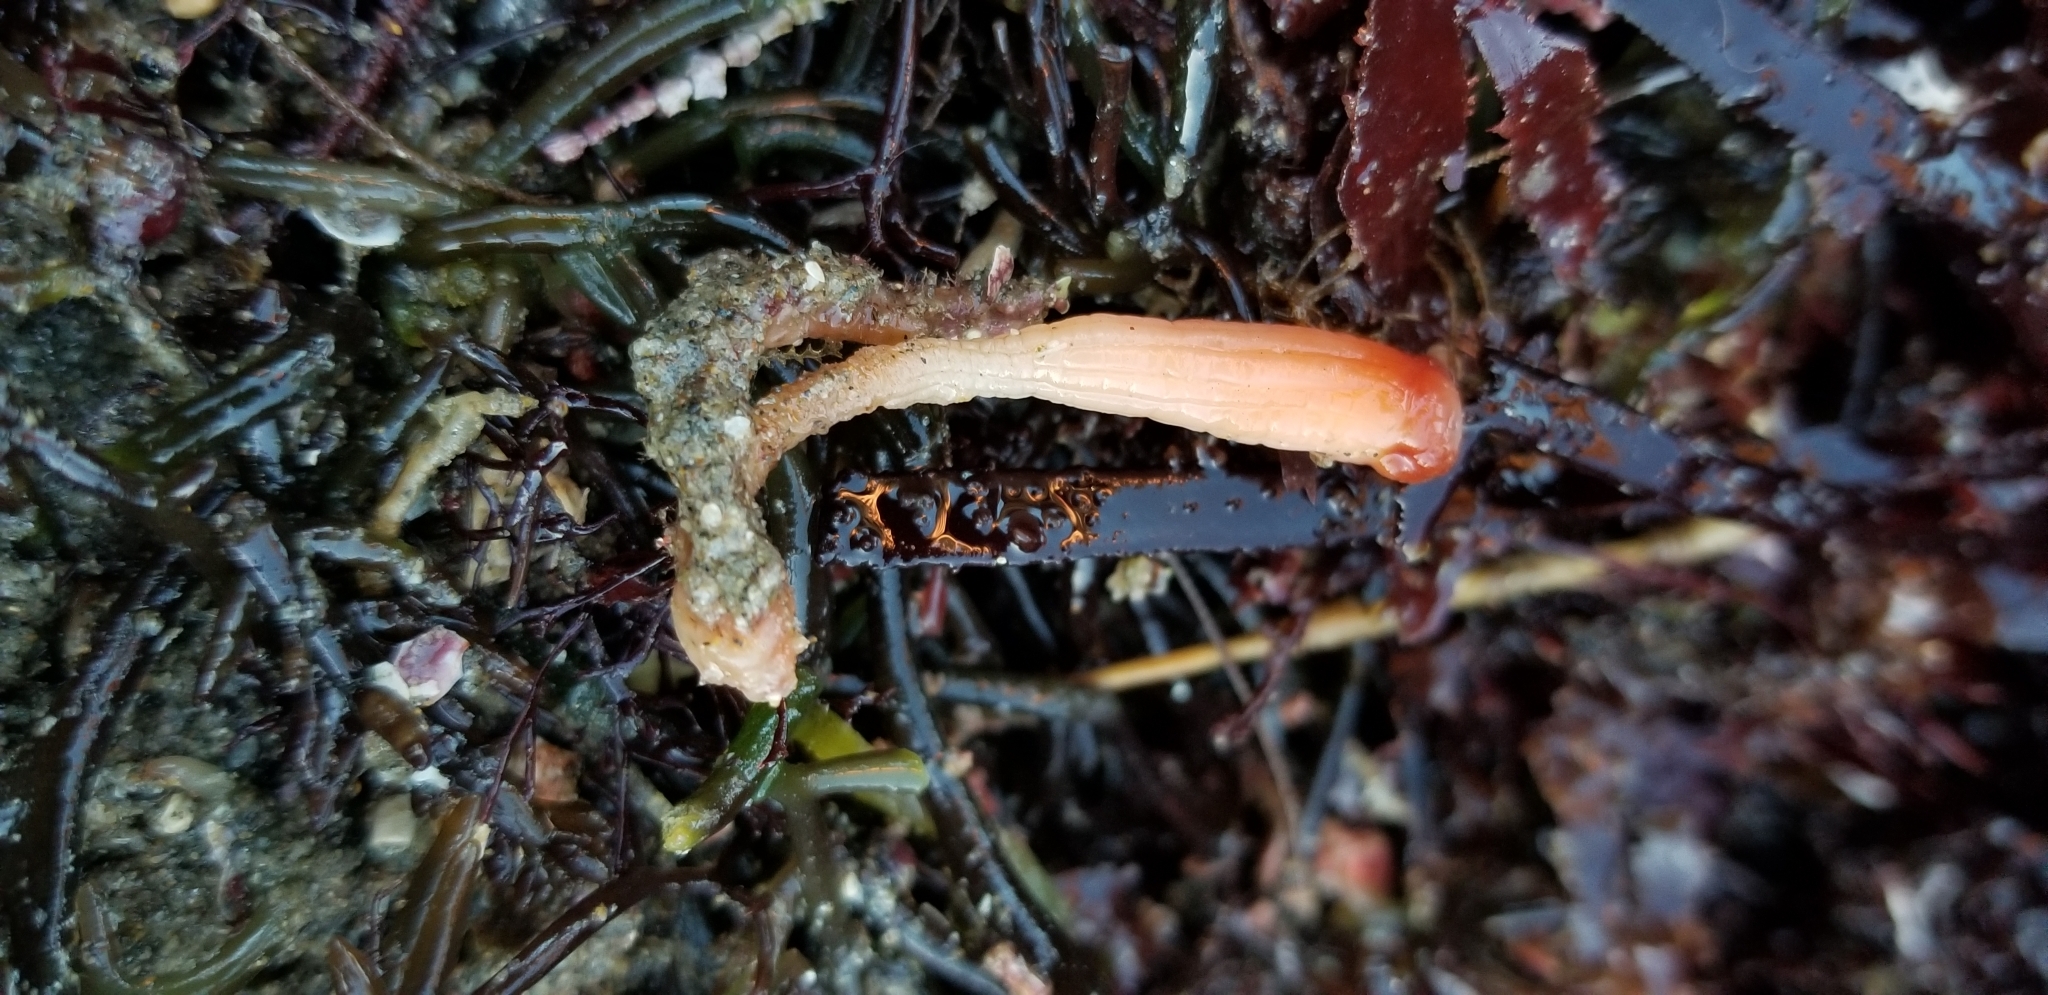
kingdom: Animalia
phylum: Chordata
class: Ascidiacea
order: Stolidobranchia
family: Styelidae
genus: Styela
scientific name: Styela montereyensis
